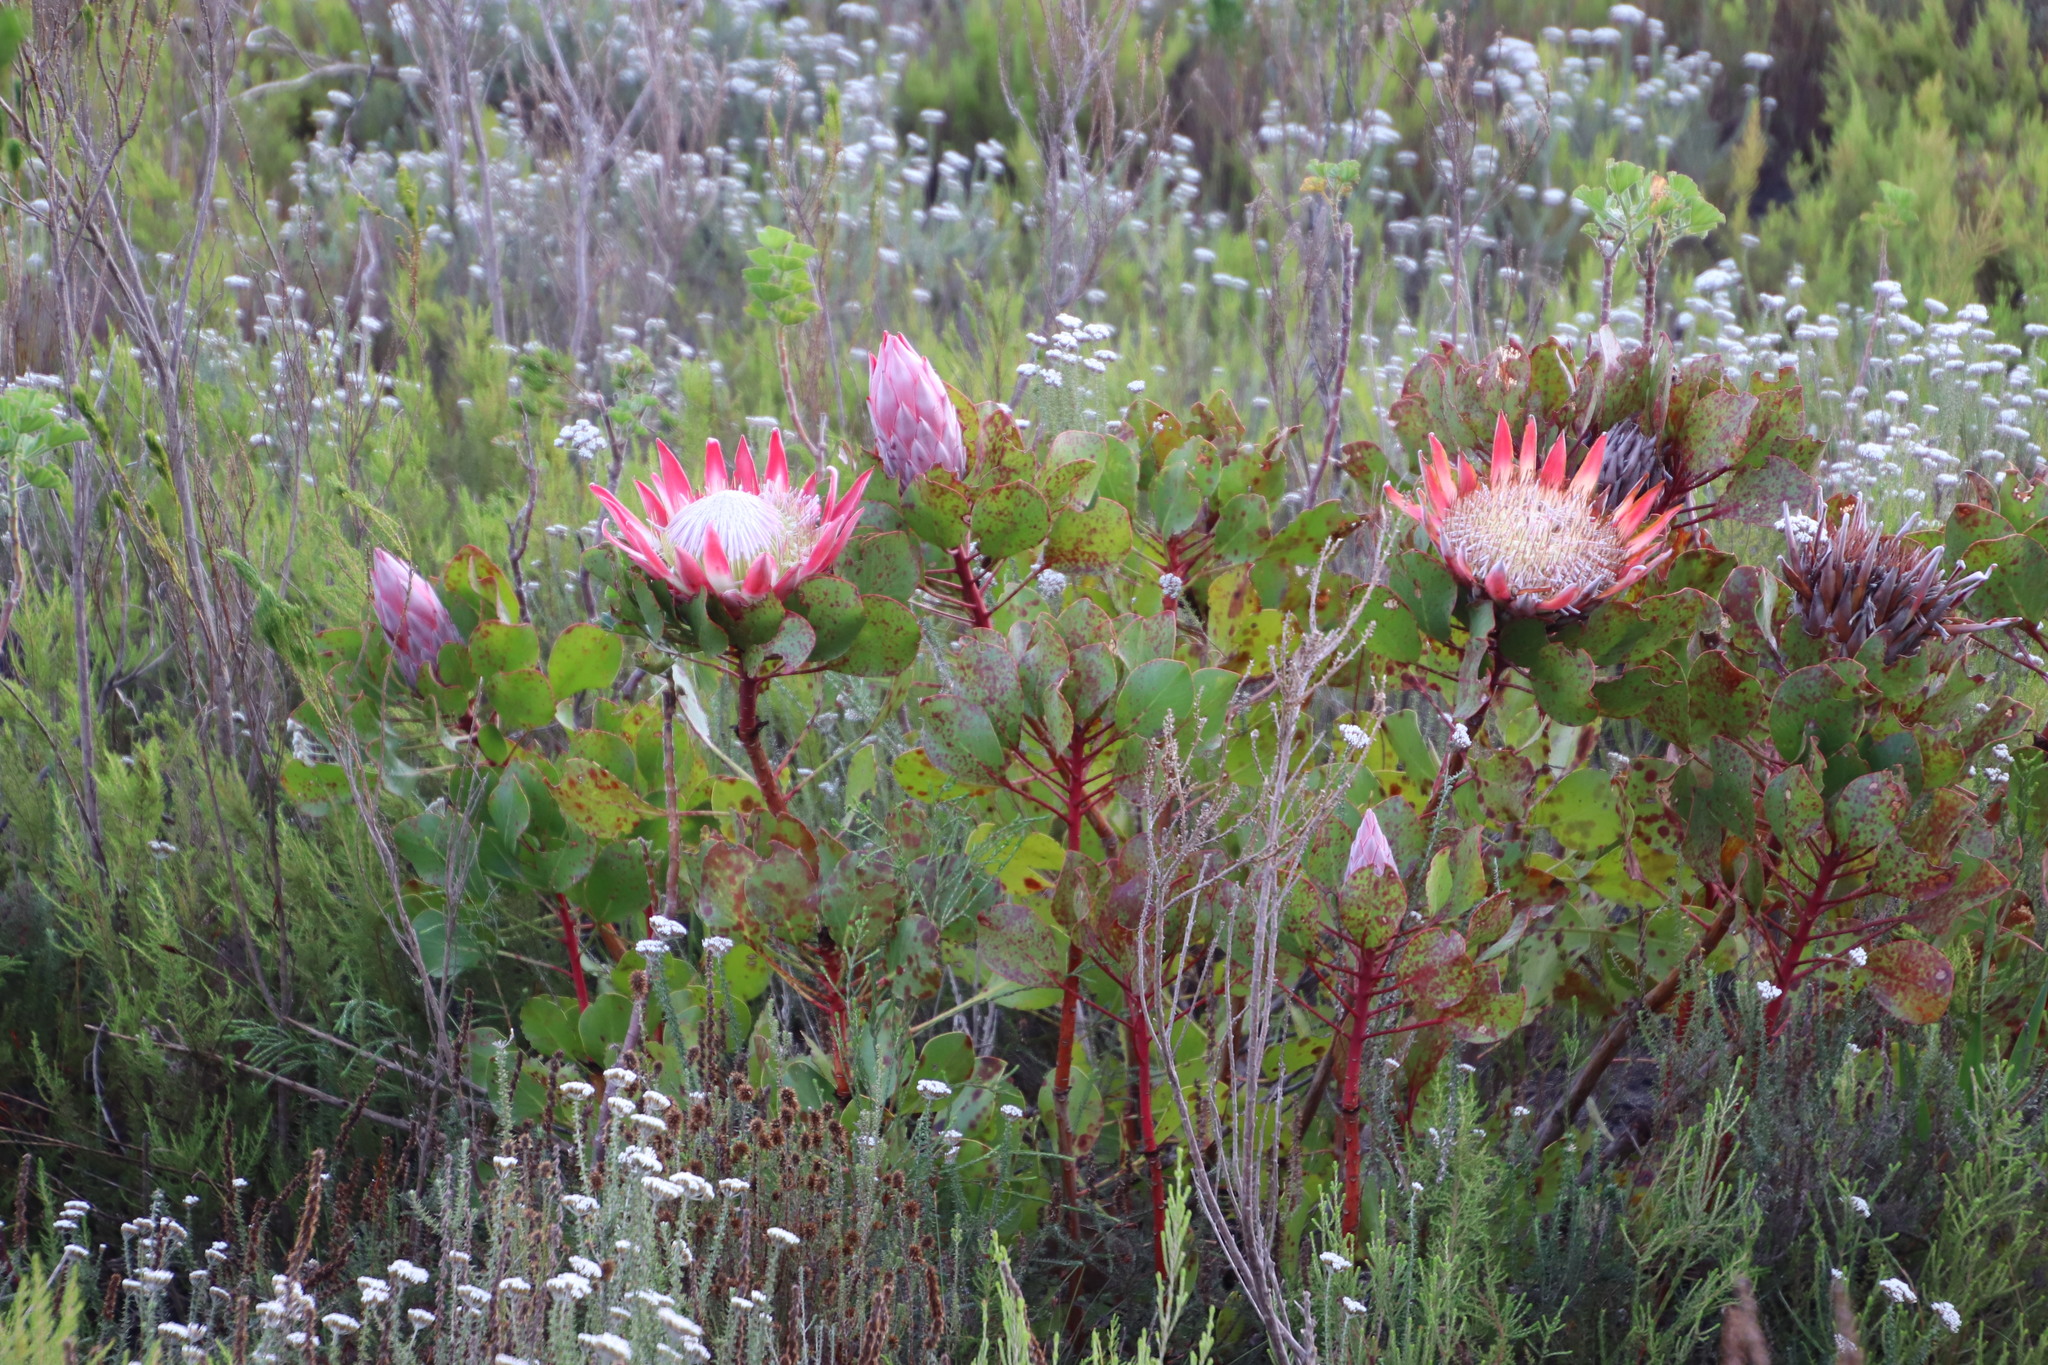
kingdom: Plantae
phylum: Tracheophyta
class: Magnoliopsida
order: Proteales
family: Proteaceae
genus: Protea
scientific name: Protea cynaroides
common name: King protea
